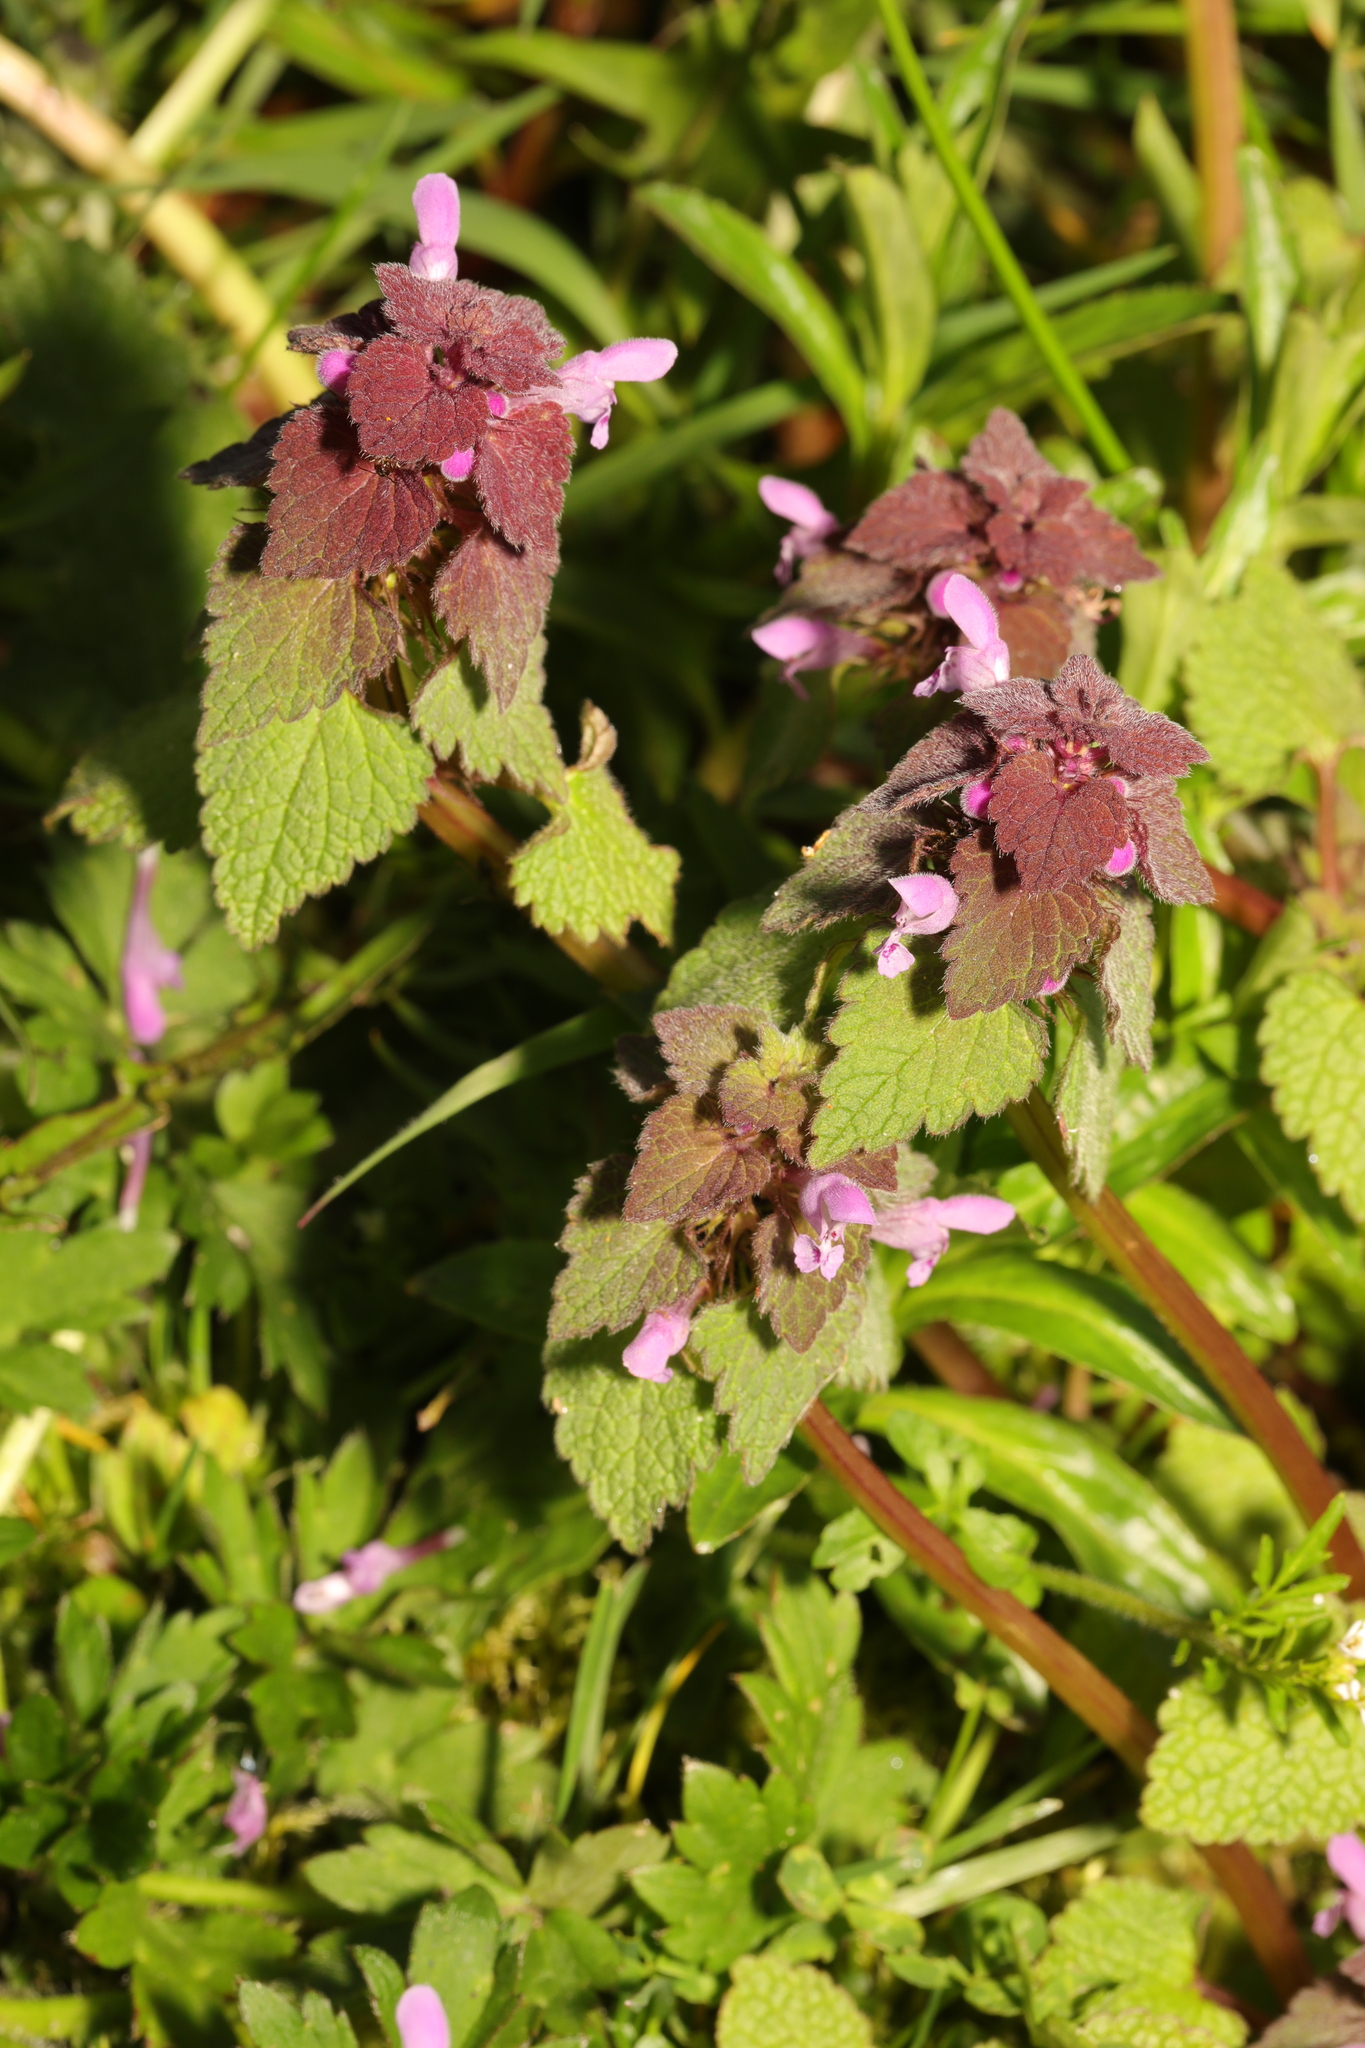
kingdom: Plantae
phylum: Tracheophyta
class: Magnoliopsida
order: Lamiales
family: Lamiaceae
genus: Lamium
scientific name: Lamium purpureum
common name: Red dead-nettle
